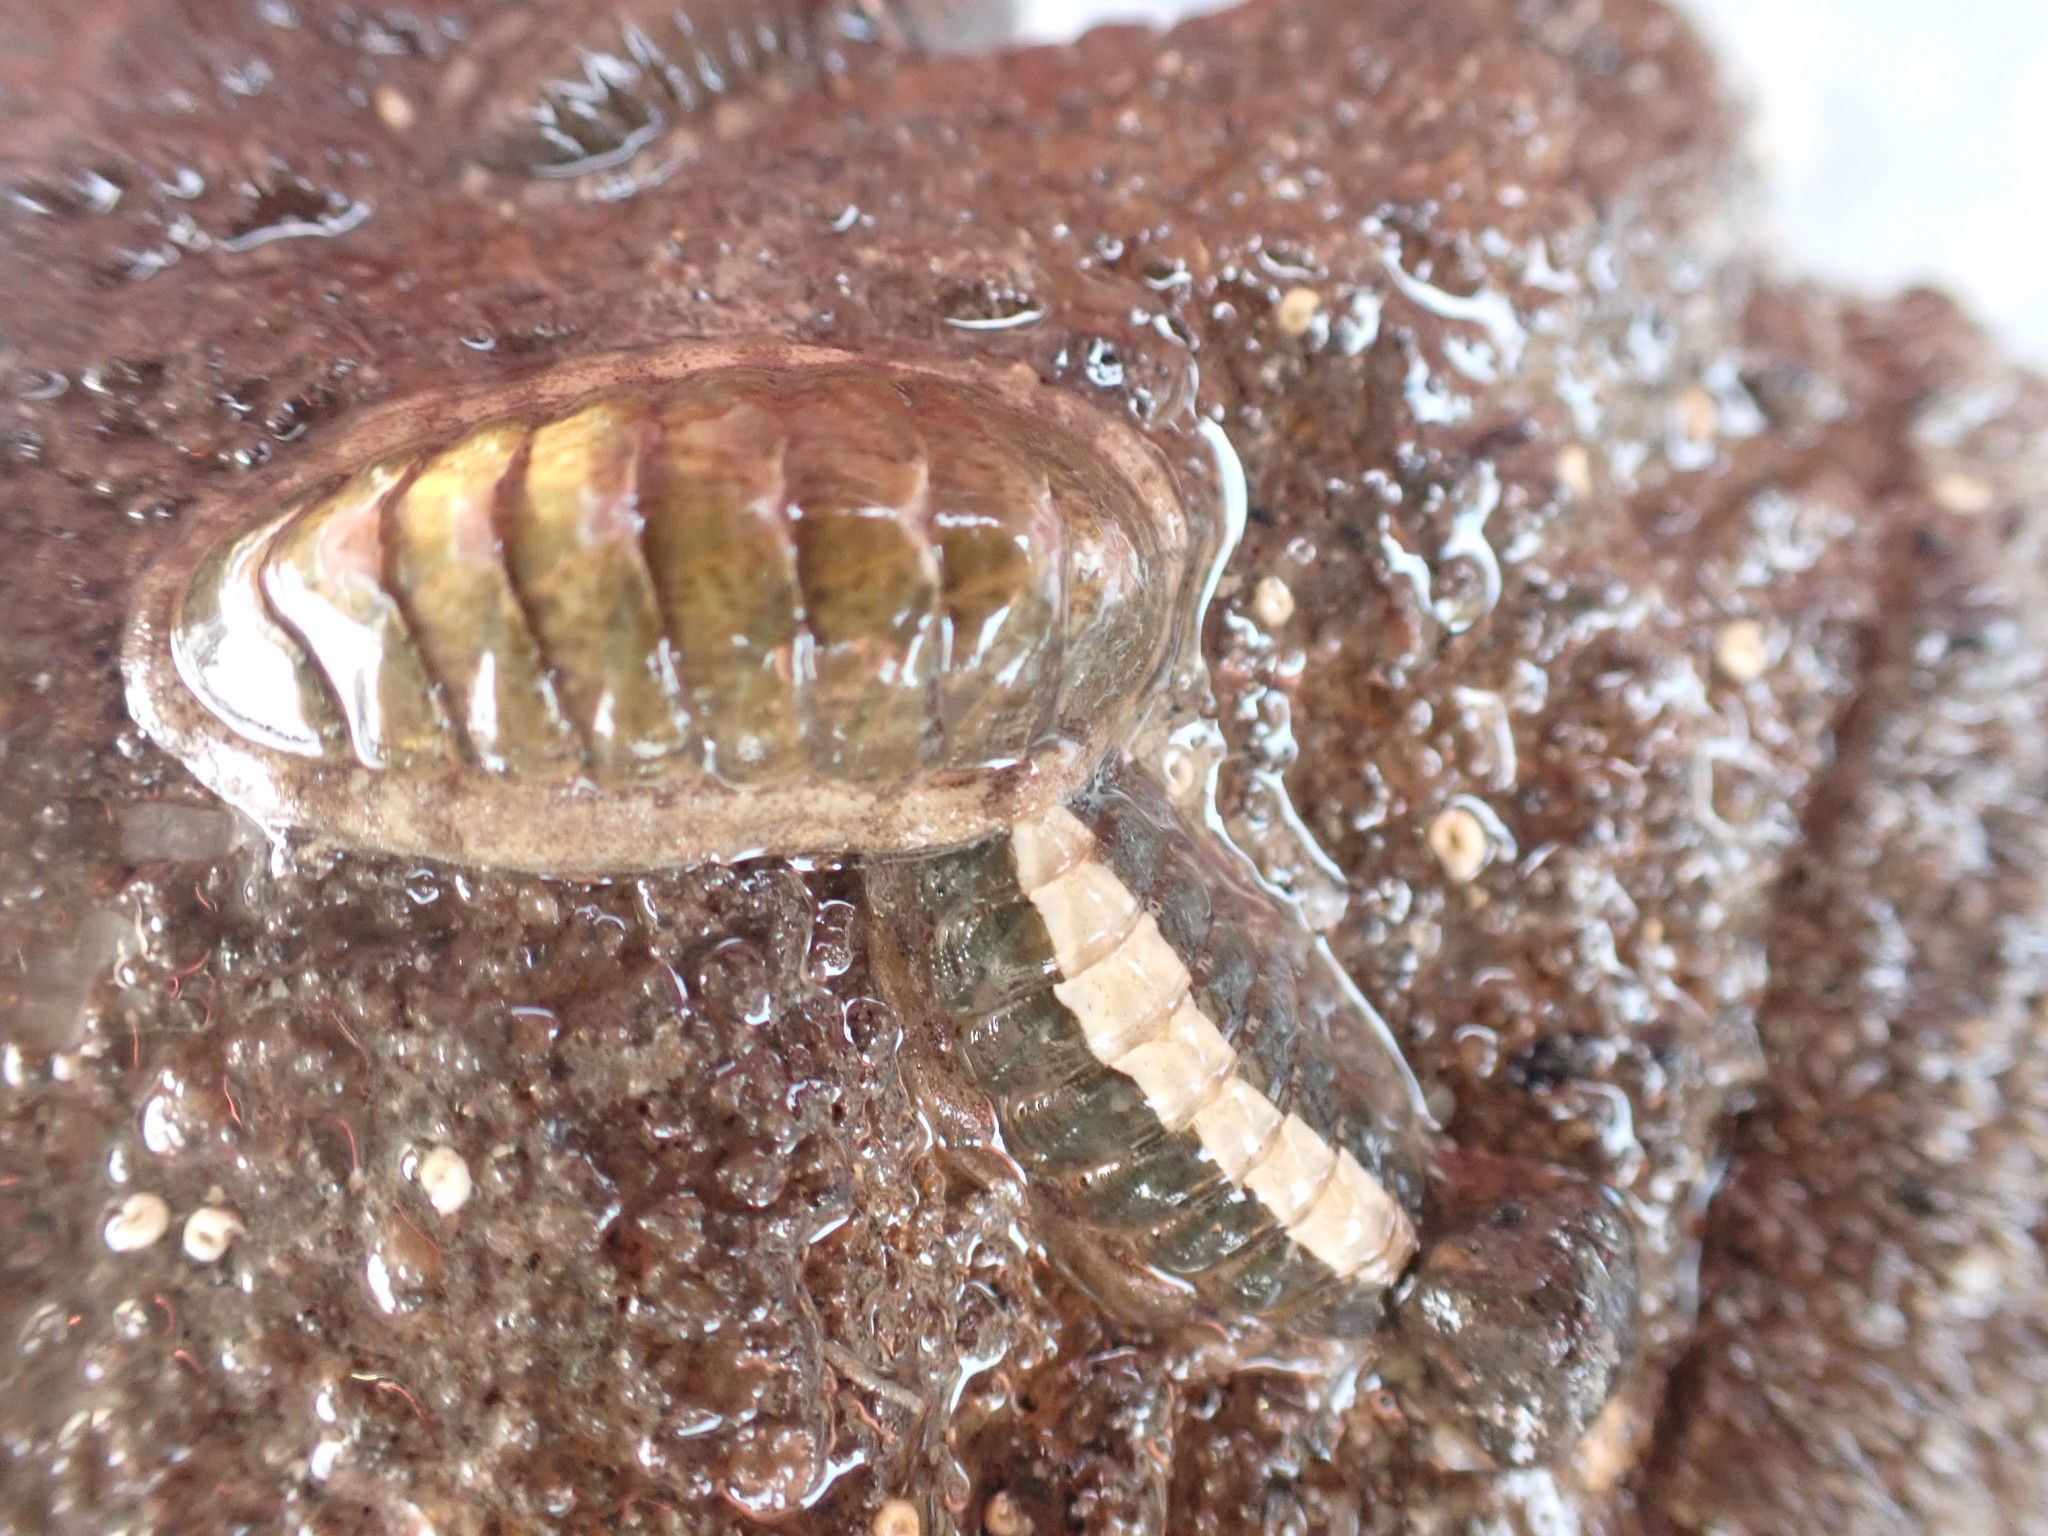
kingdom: Animalia
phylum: Mollusca
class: Polyplacophora
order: Chitonida
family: Ischnochitonidae
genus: Ischnochiton
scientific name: Ischnochiton maorianus
